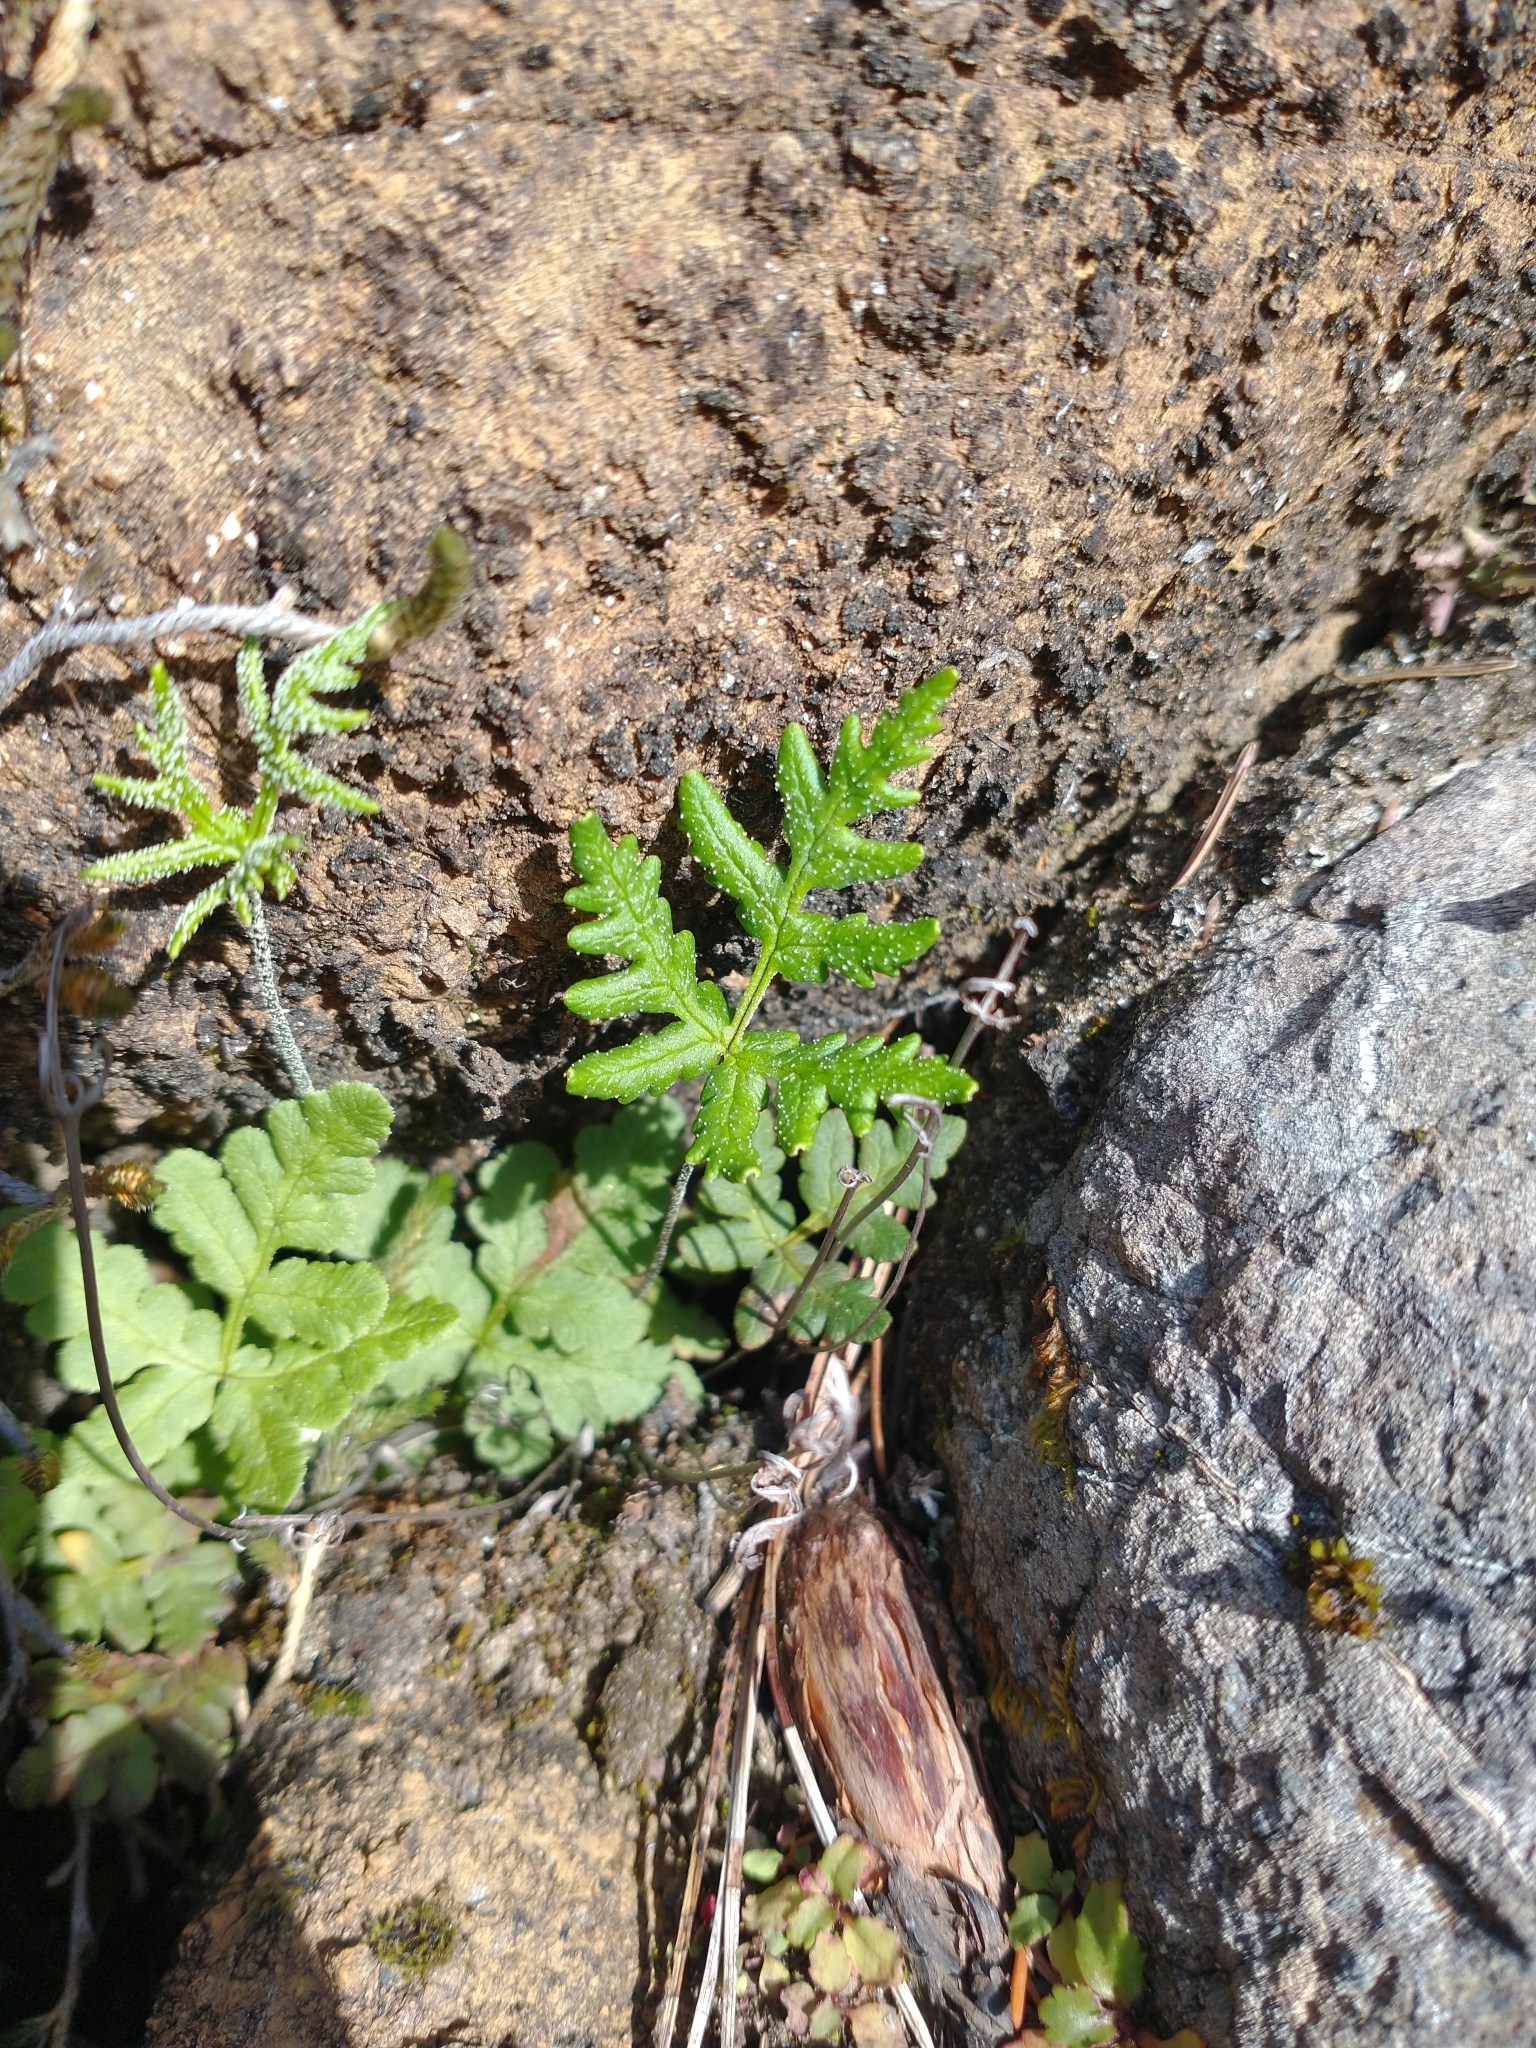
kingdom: Plantae
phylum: Tracheophyta
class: Polypodiopsida
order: Polypodiales
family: Pteridaceae
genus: Pentagramma
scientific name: Pentagramma triangularis
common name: Gold fern
